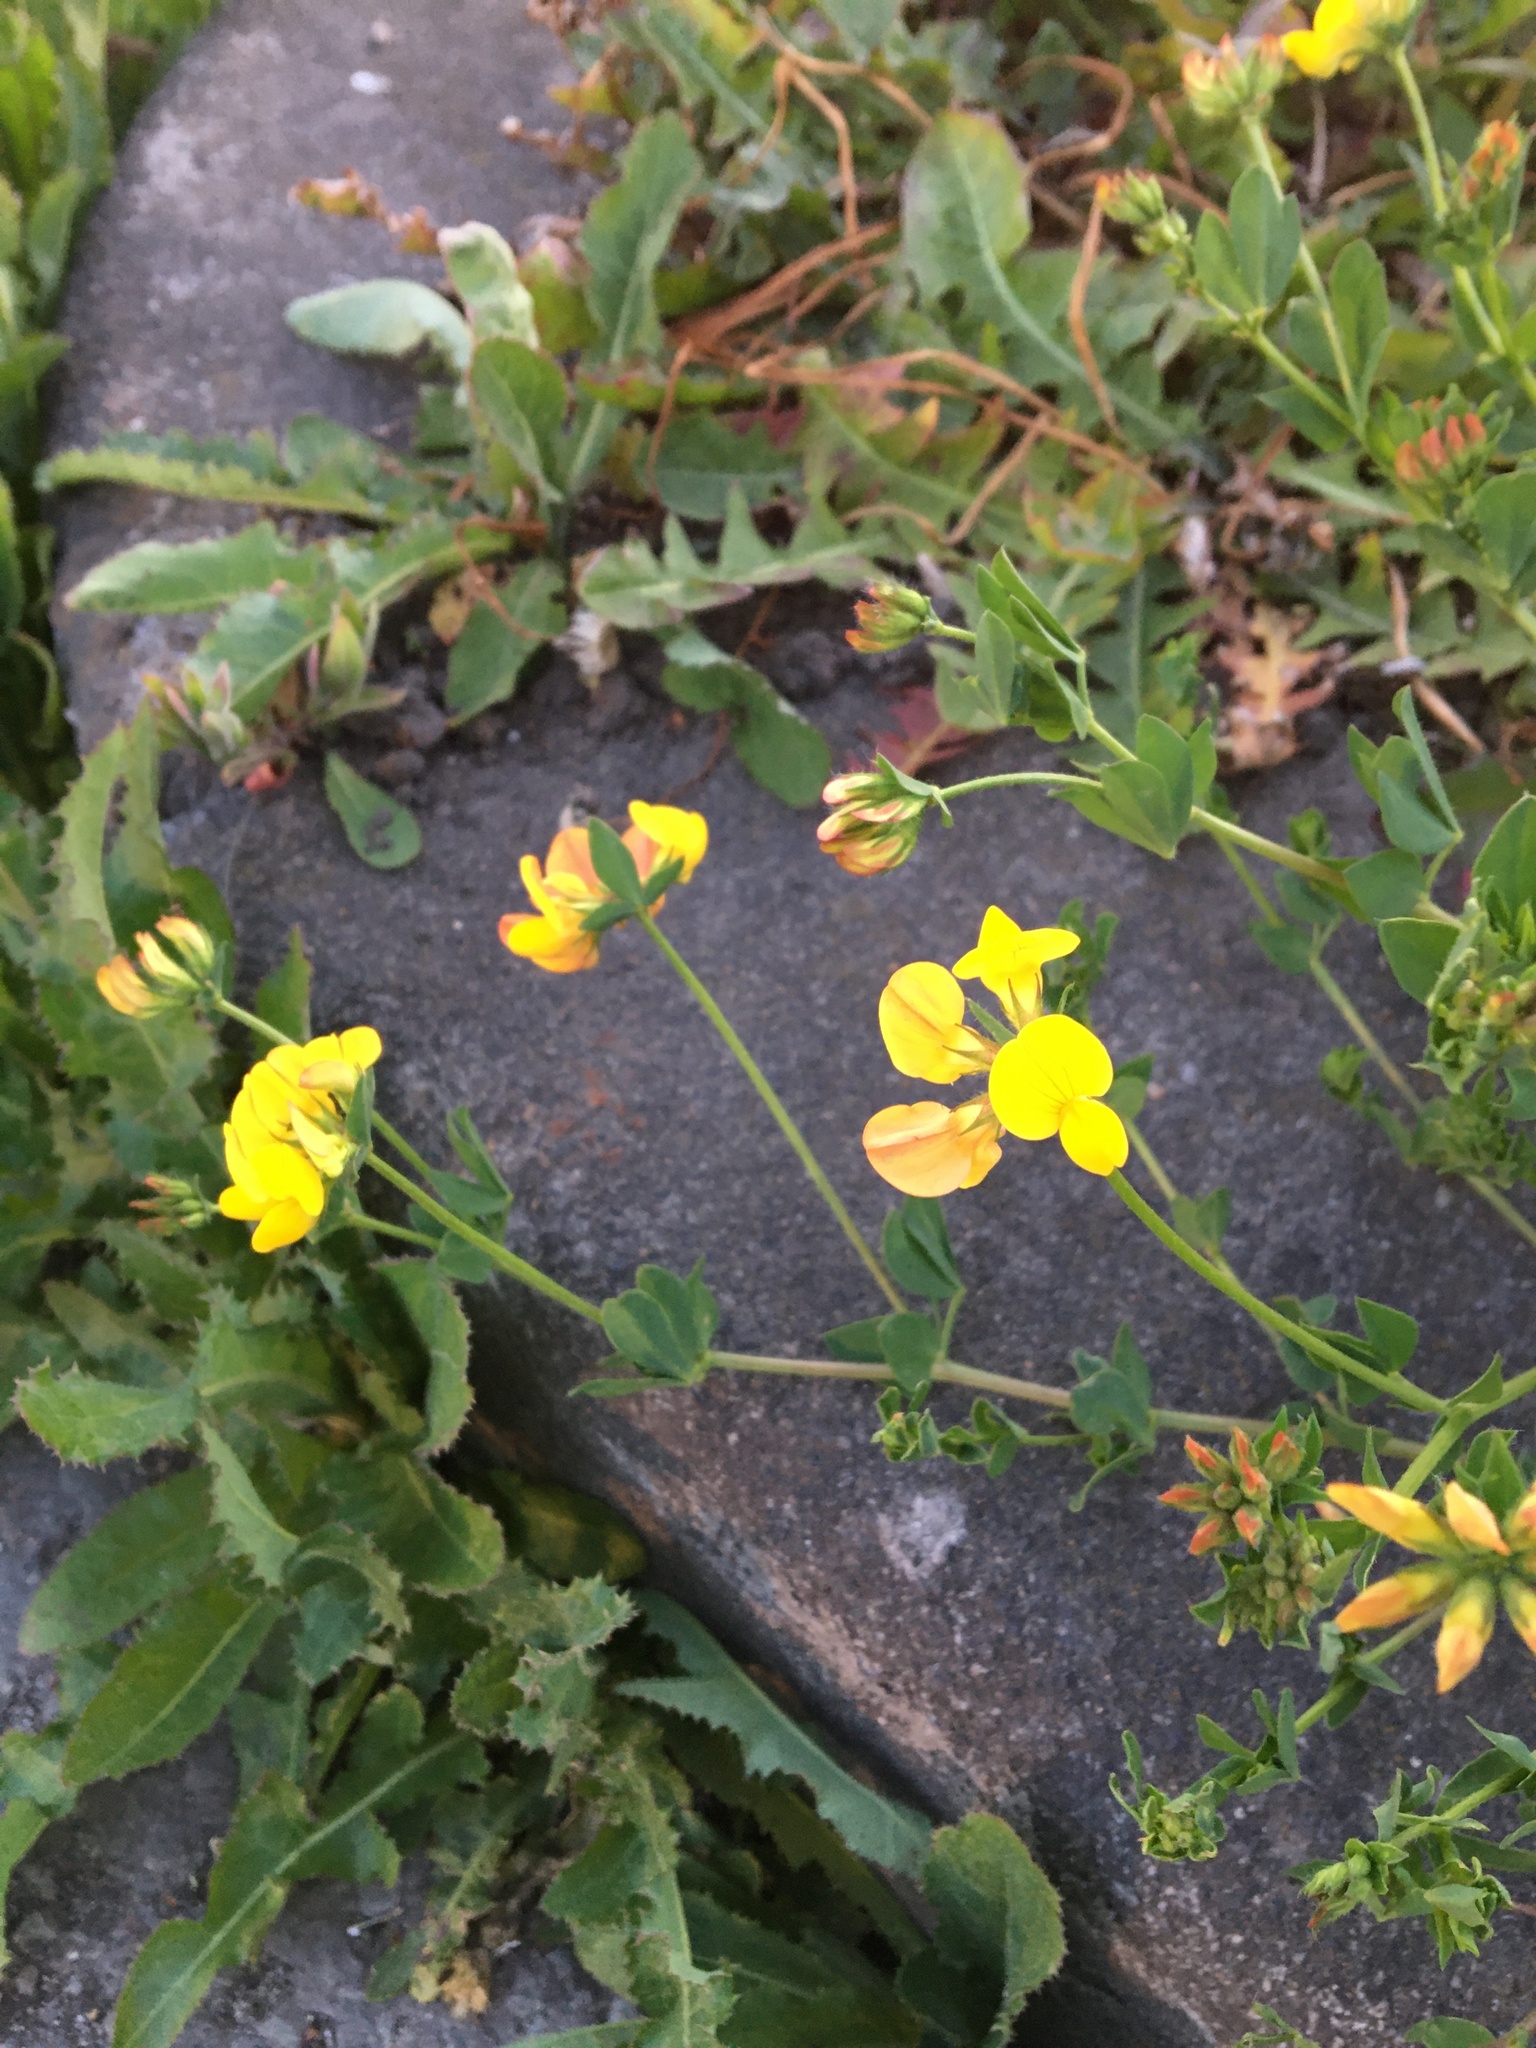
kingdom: Plantae
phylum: Tracheophyta
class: Magnoliopsida
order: Fabales
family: Fabaceae
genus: Lotus
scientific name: Lotus corniculatus
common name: Common bird's-foot-trefoil
